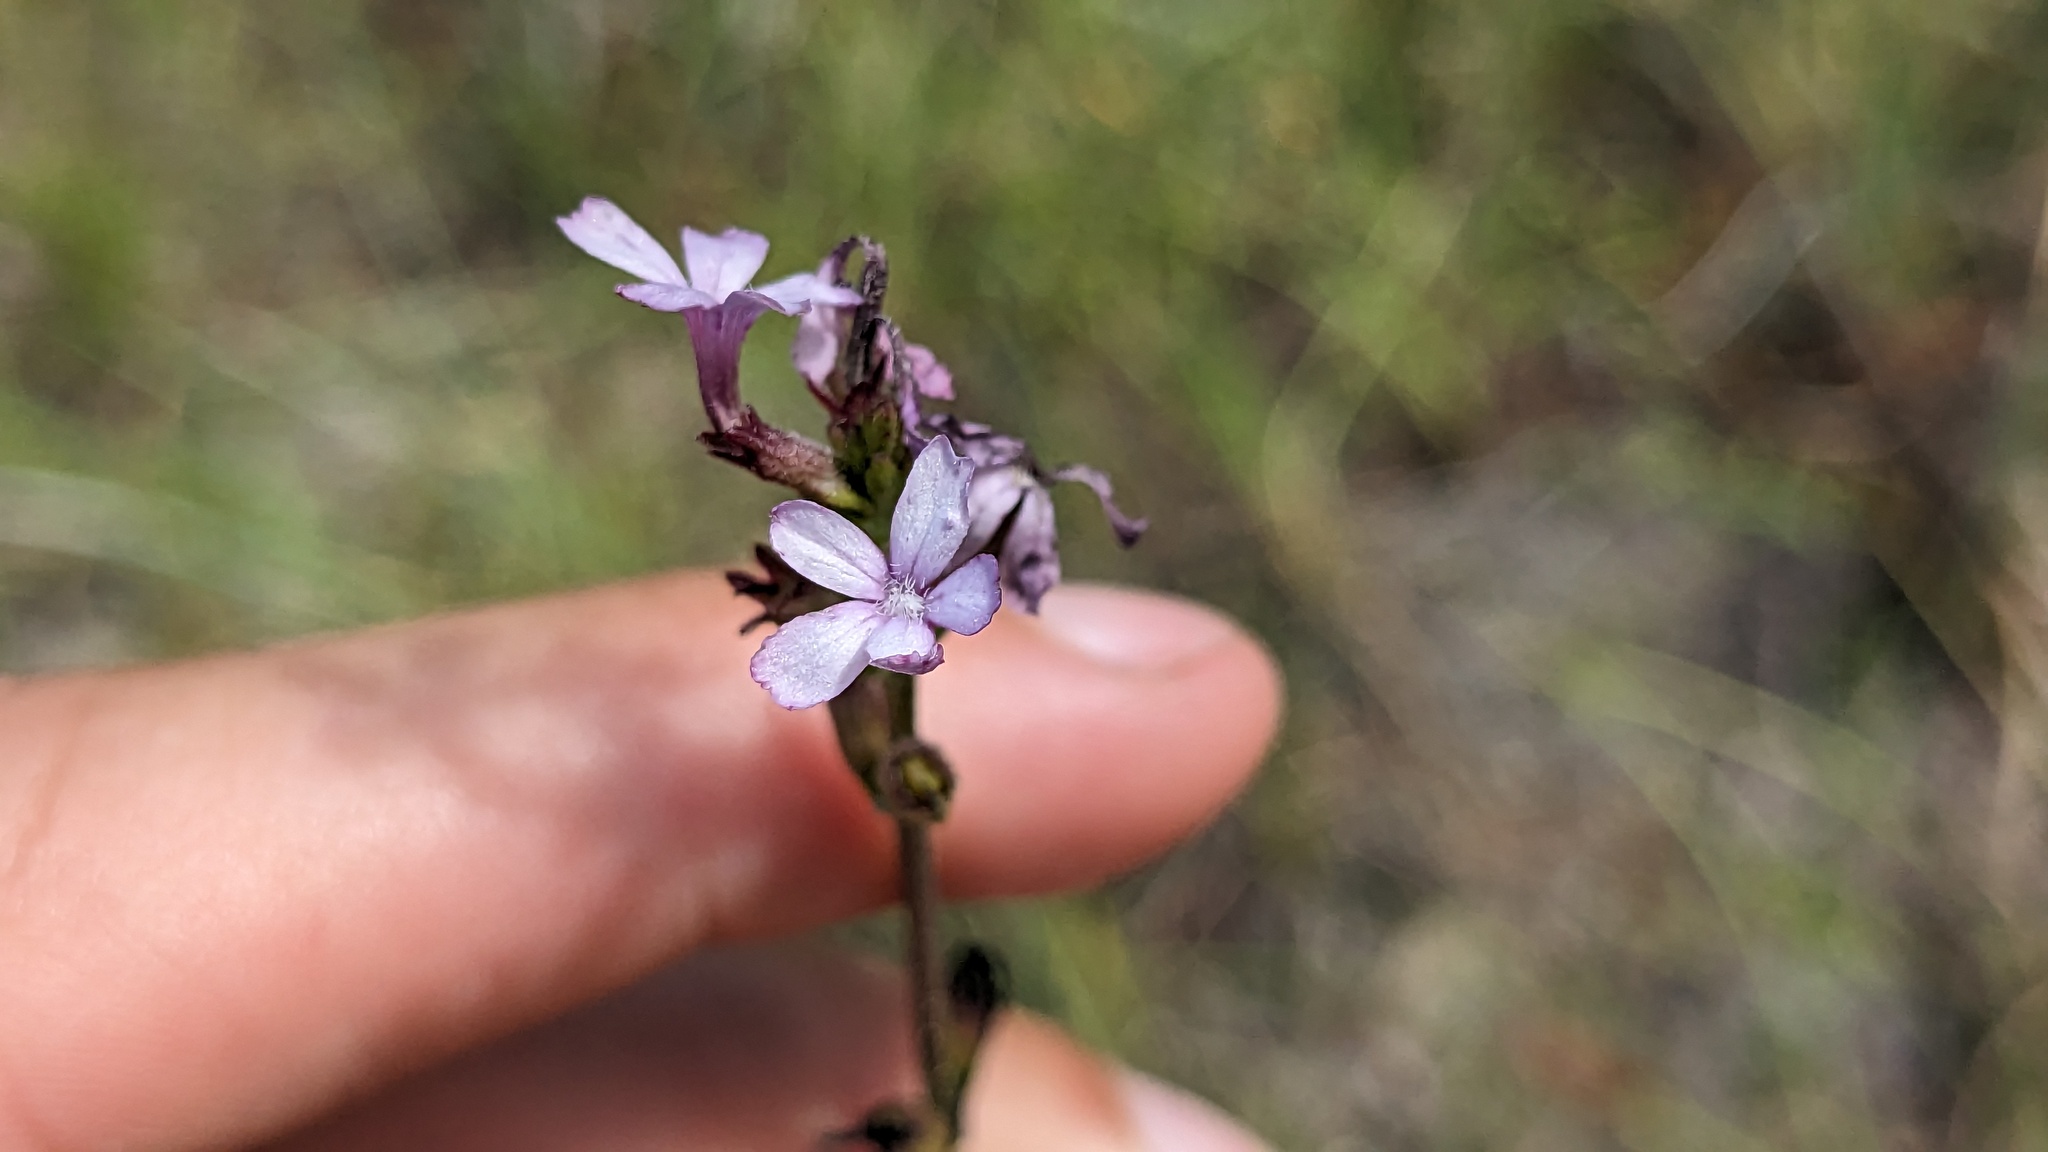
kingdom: Plantae
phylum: Tracheophyta
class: Magnoliopsida
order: Lamiales
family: Orobanchaceae
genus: Buchnera
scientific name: Buchnera floridana
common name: Florida bluehearts
